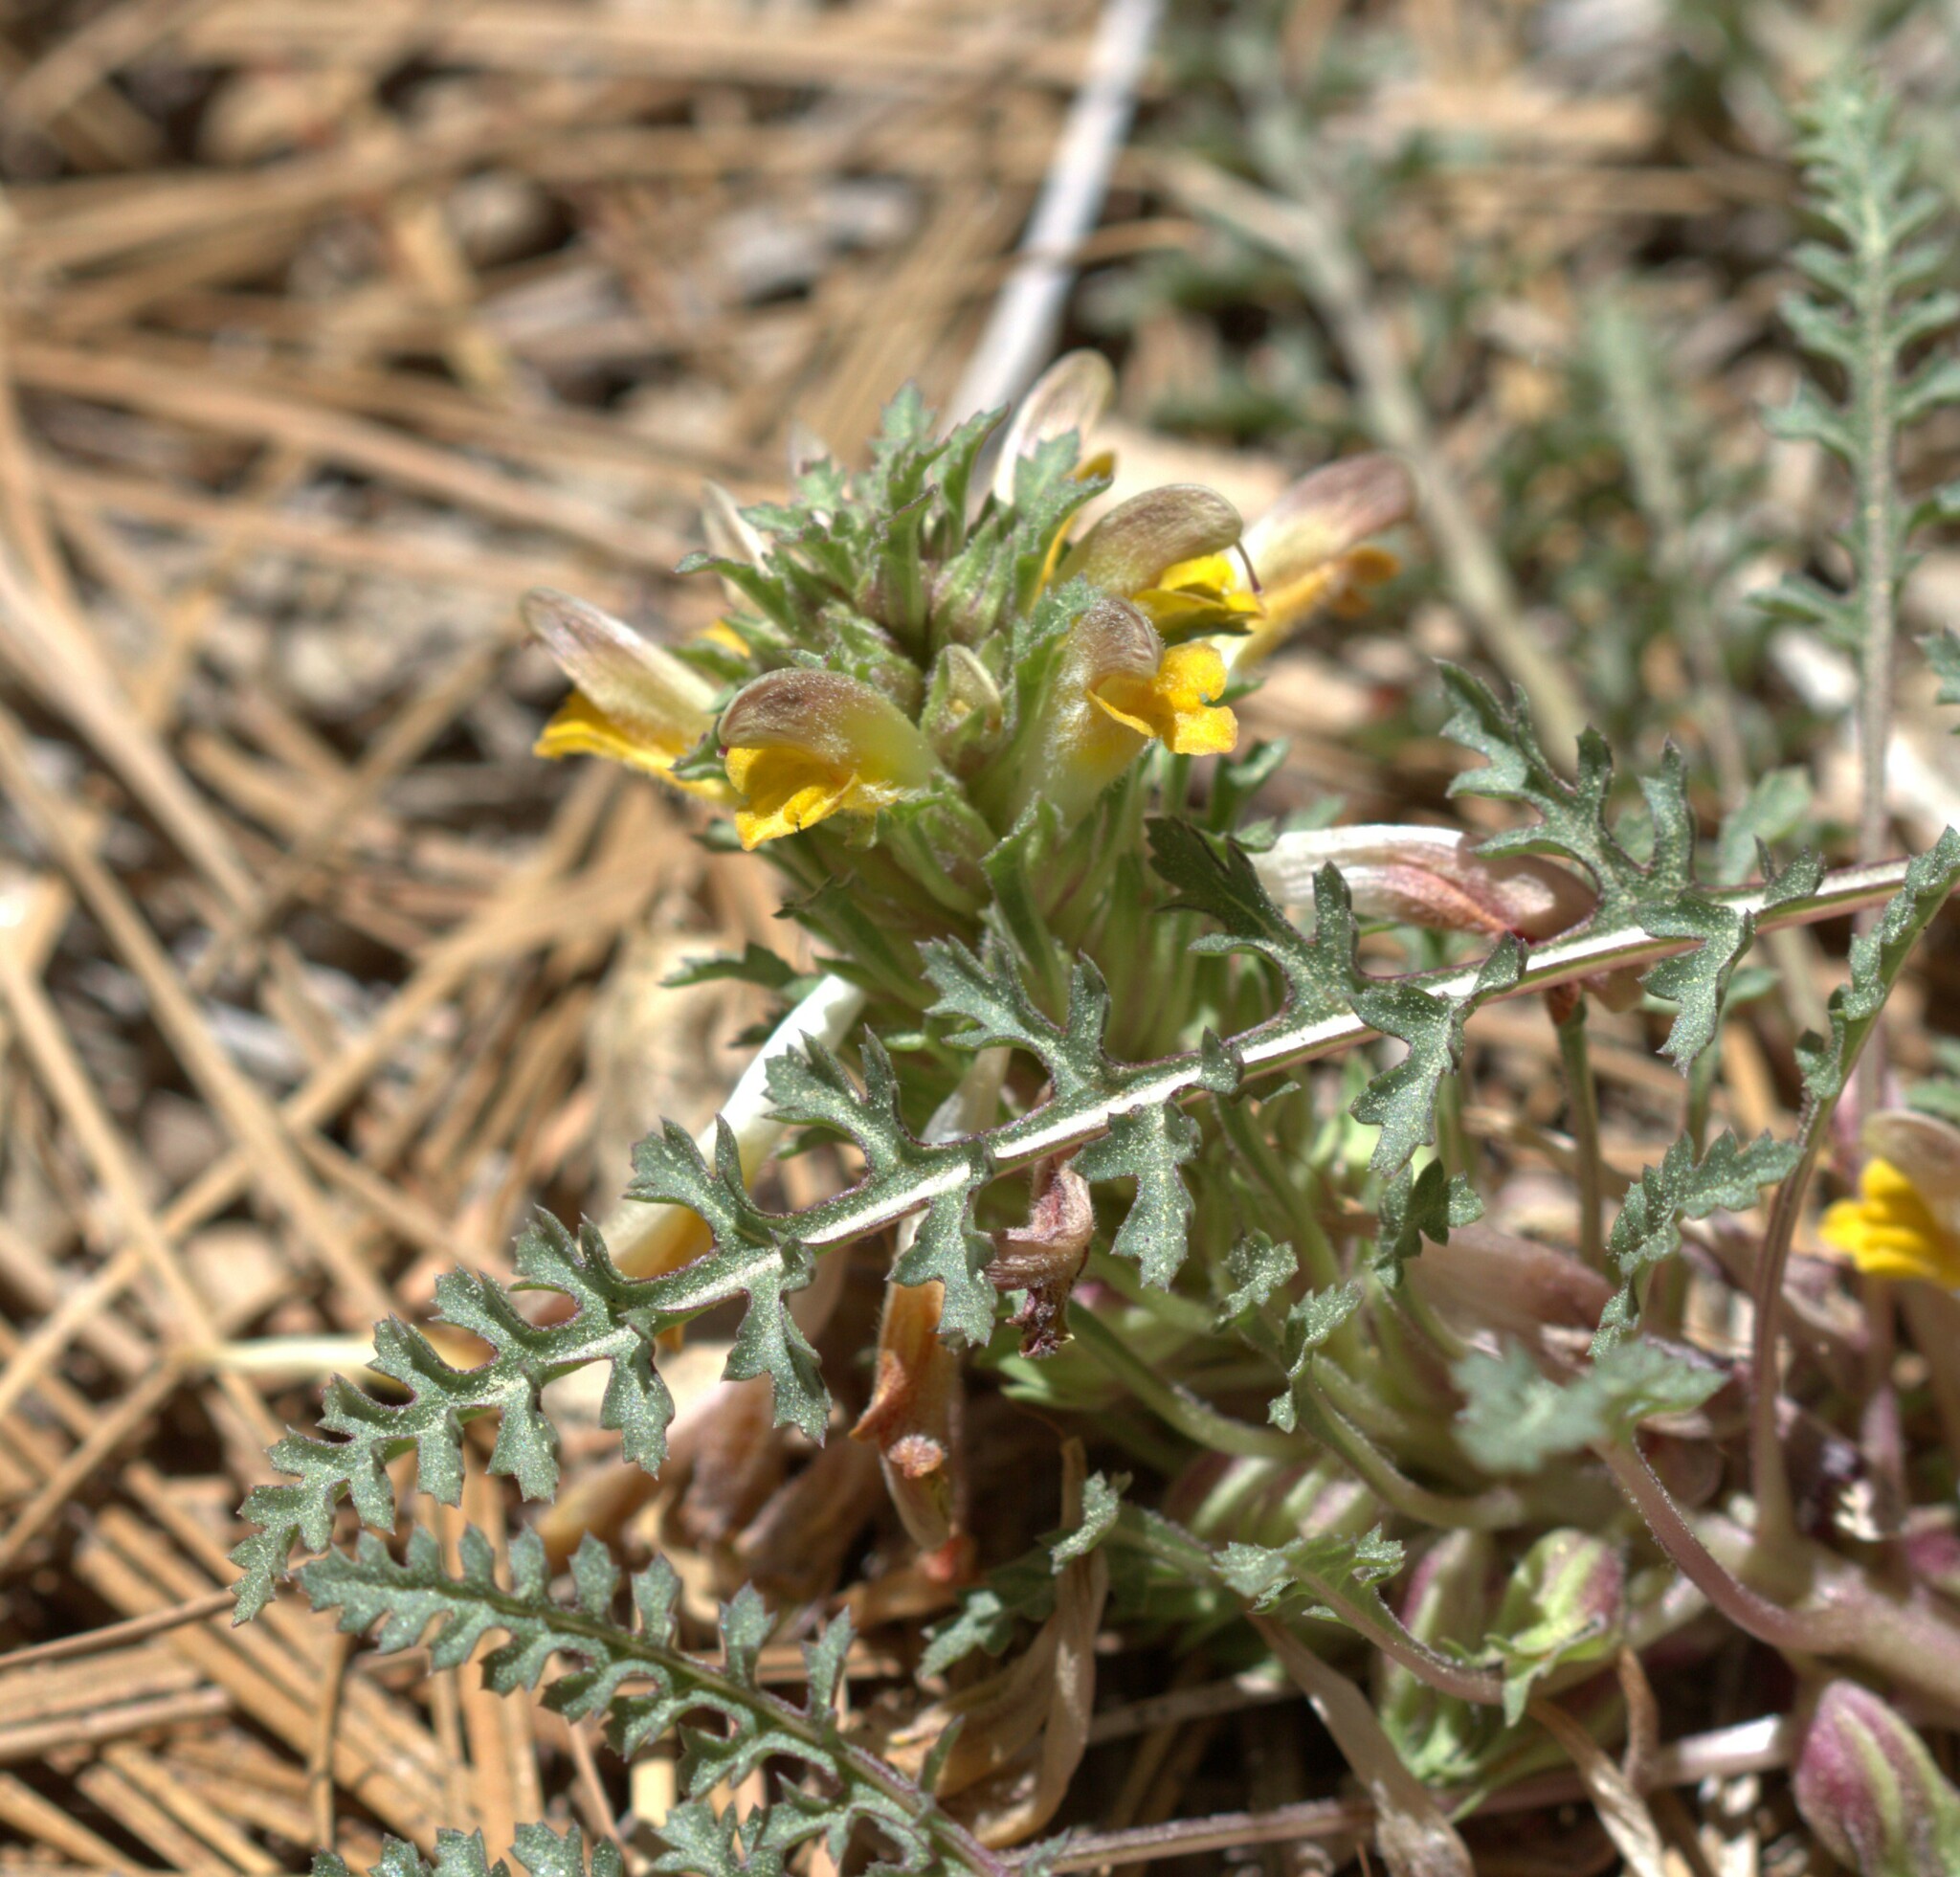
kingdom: Plantae
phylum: Tracheophyta
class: Magnoliopsida
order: Lamiales
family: Orobanchaceae
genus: Pedicularis
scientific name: Pedicularis semibarbata
